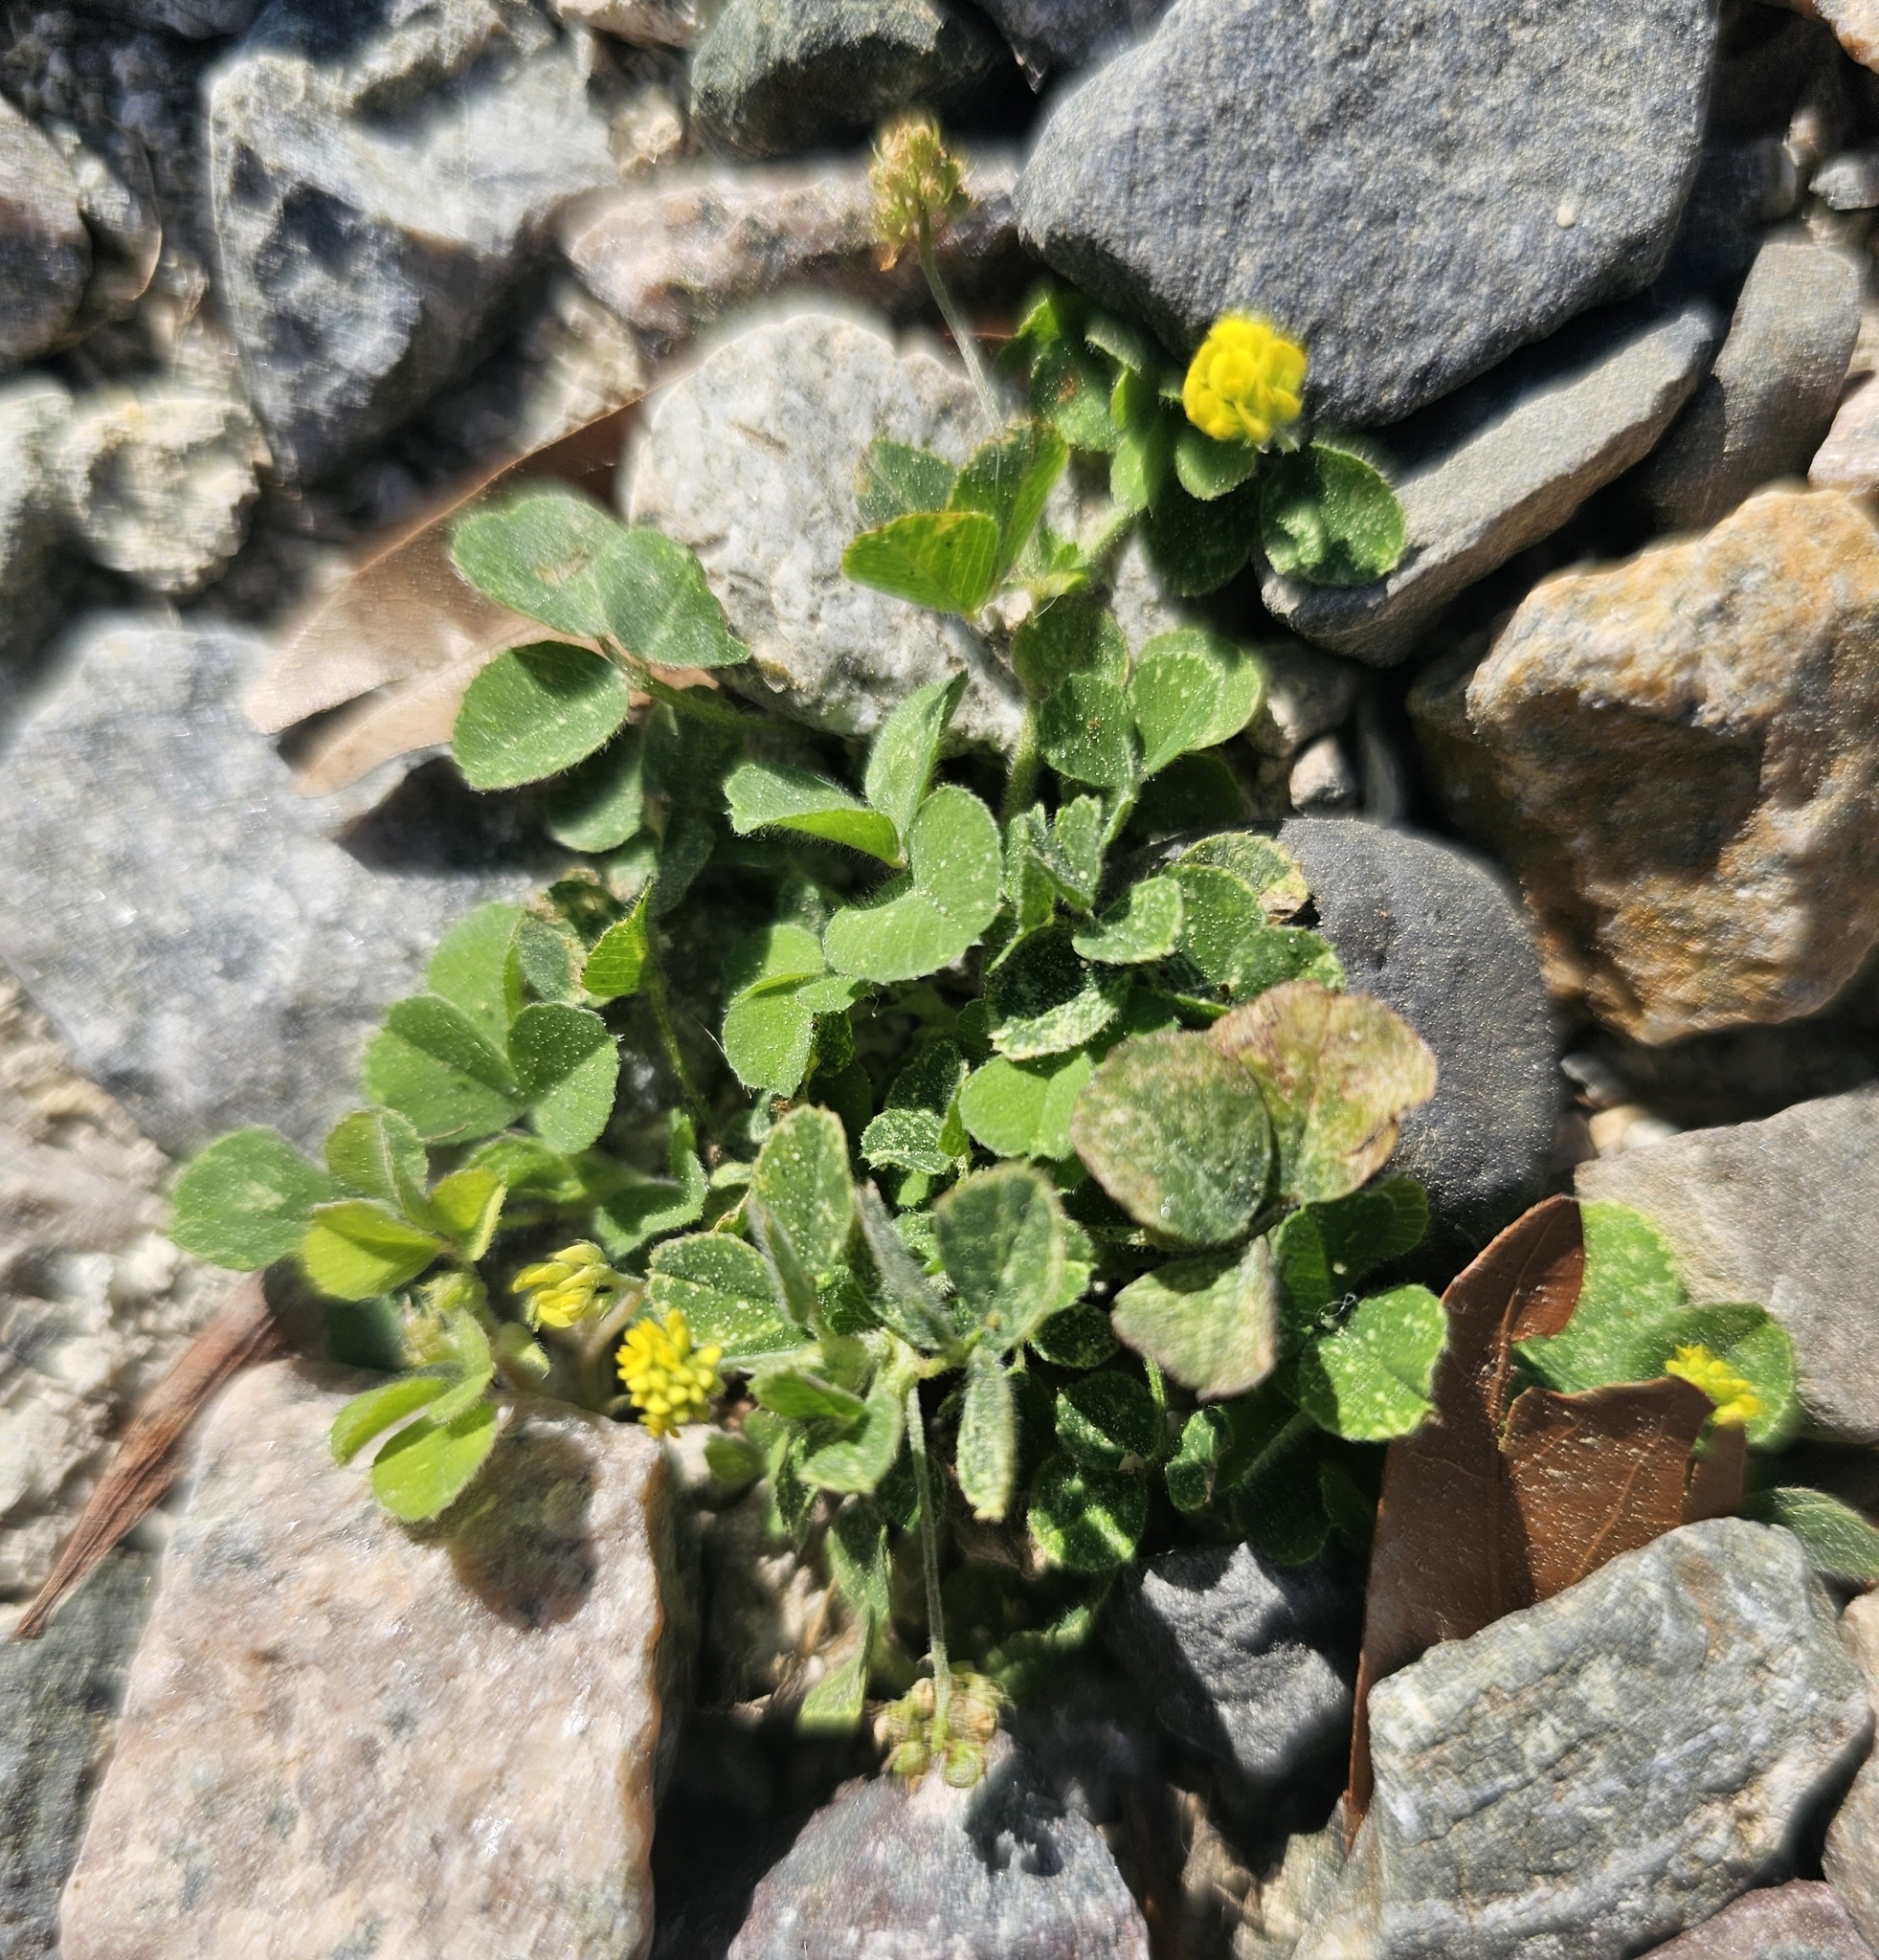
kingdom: Plantae
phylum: Tracheophyta
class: Magnoliopsida
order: Fabales
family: Fabaceae
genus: Medicago
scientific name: Medicago lupulina
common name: Black medick
